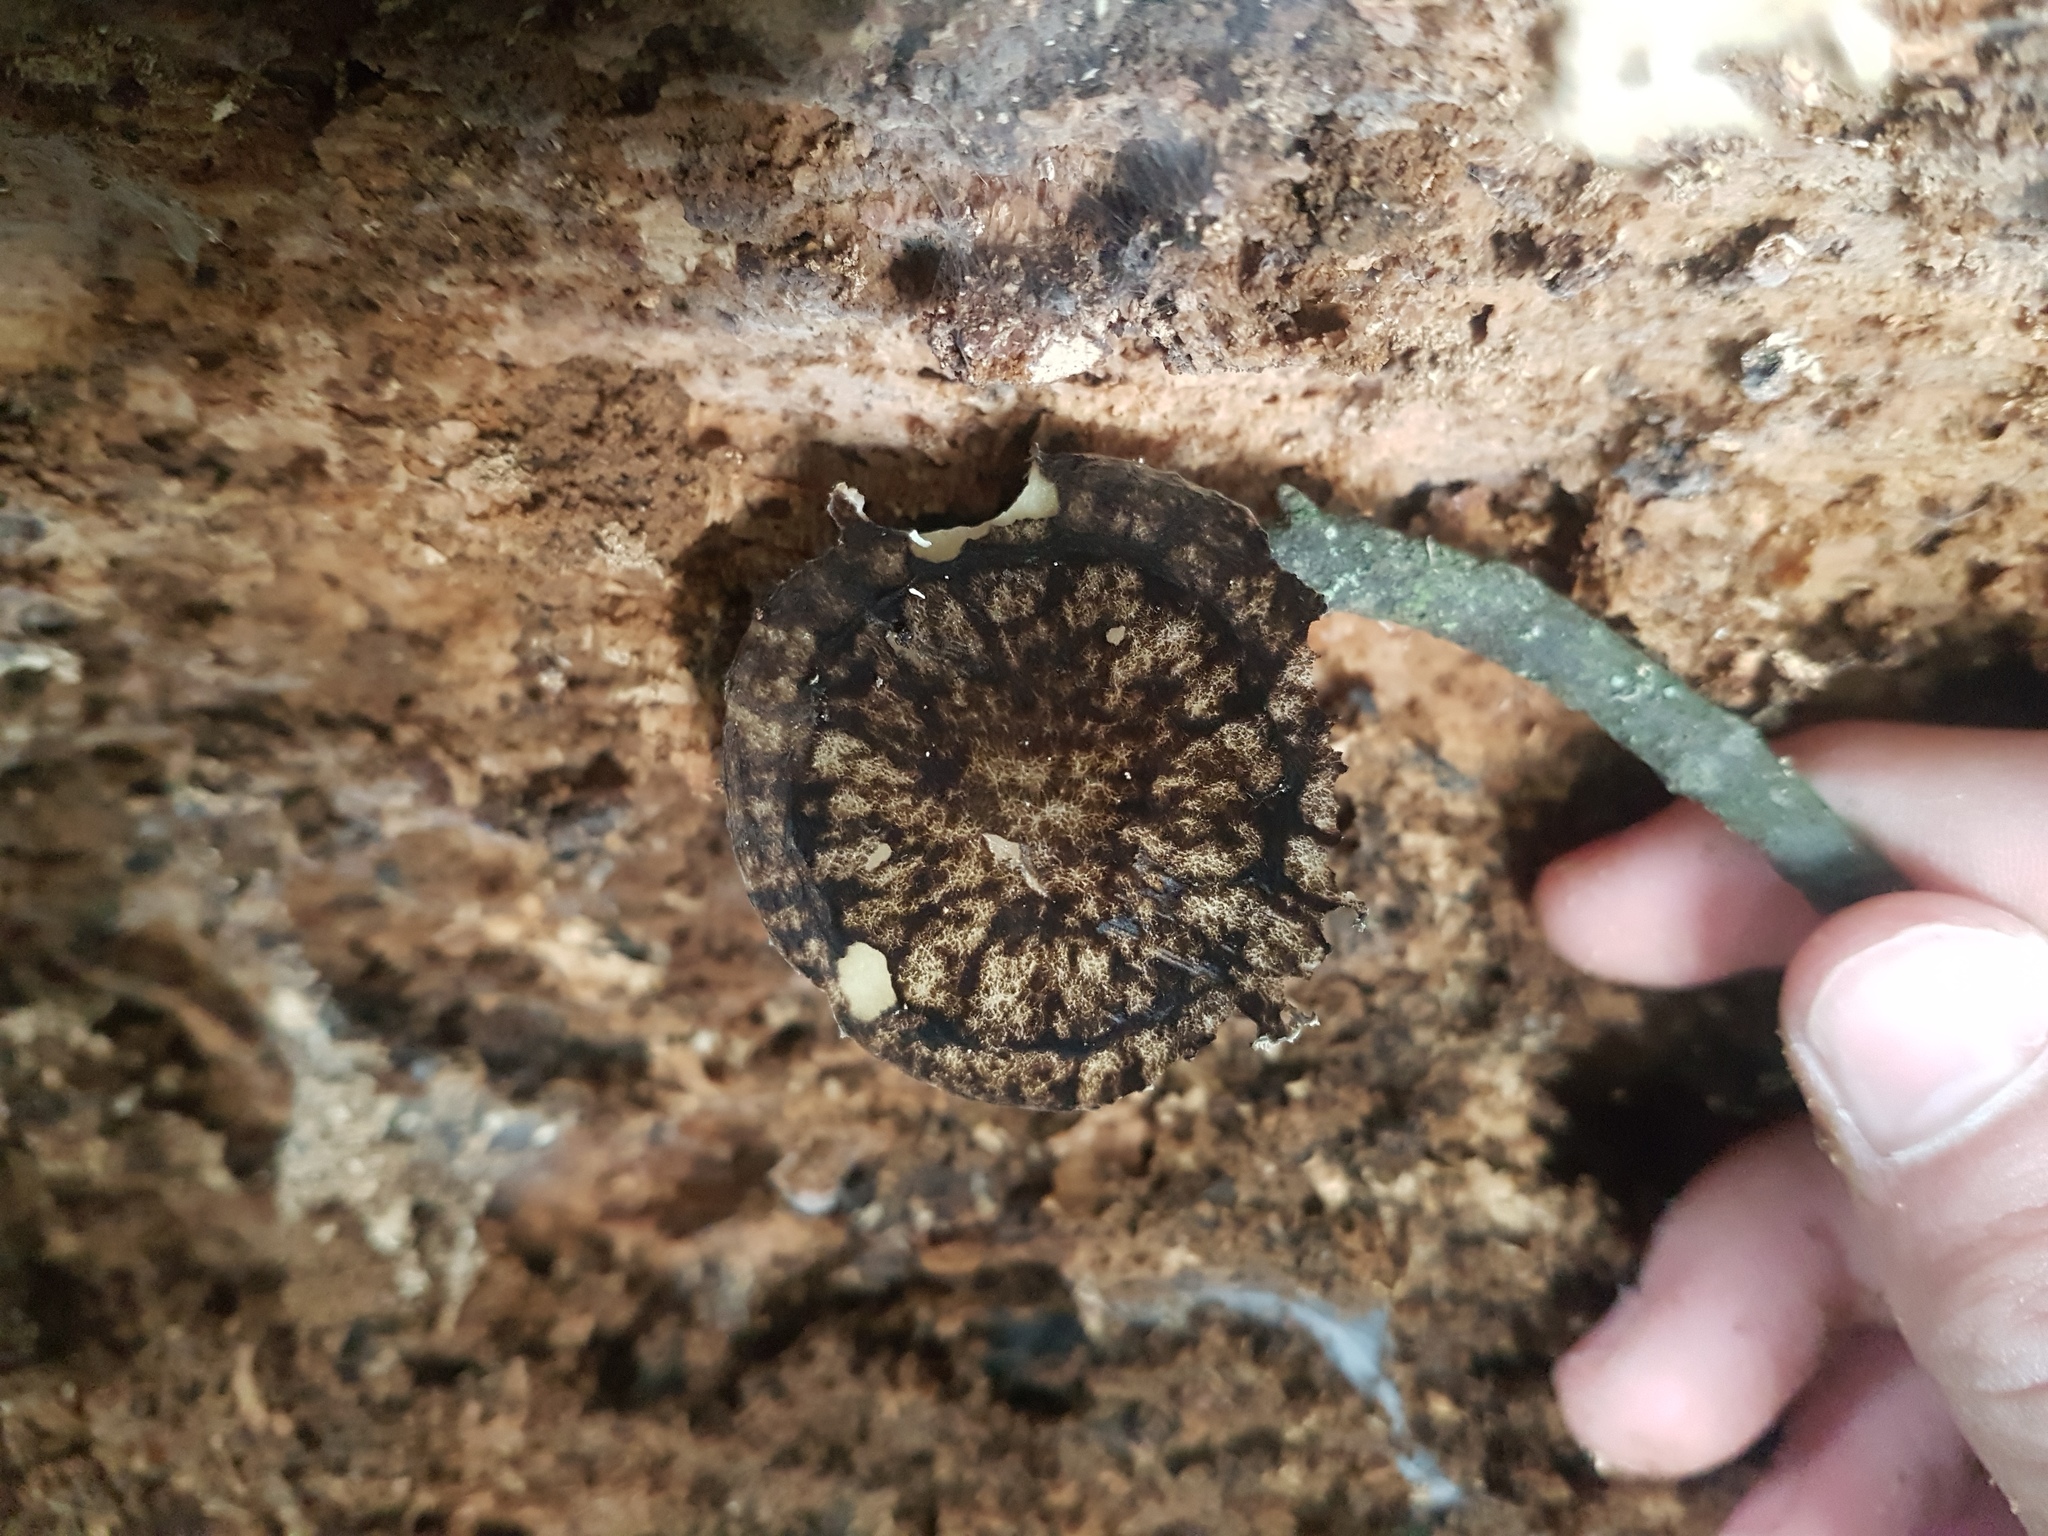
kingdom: Fungi
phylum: Basidiomycota
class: Agaricomycetes
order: Agaricales
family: Pluteaceae
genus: Pluteus
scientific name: Pluteus velutinornatus
